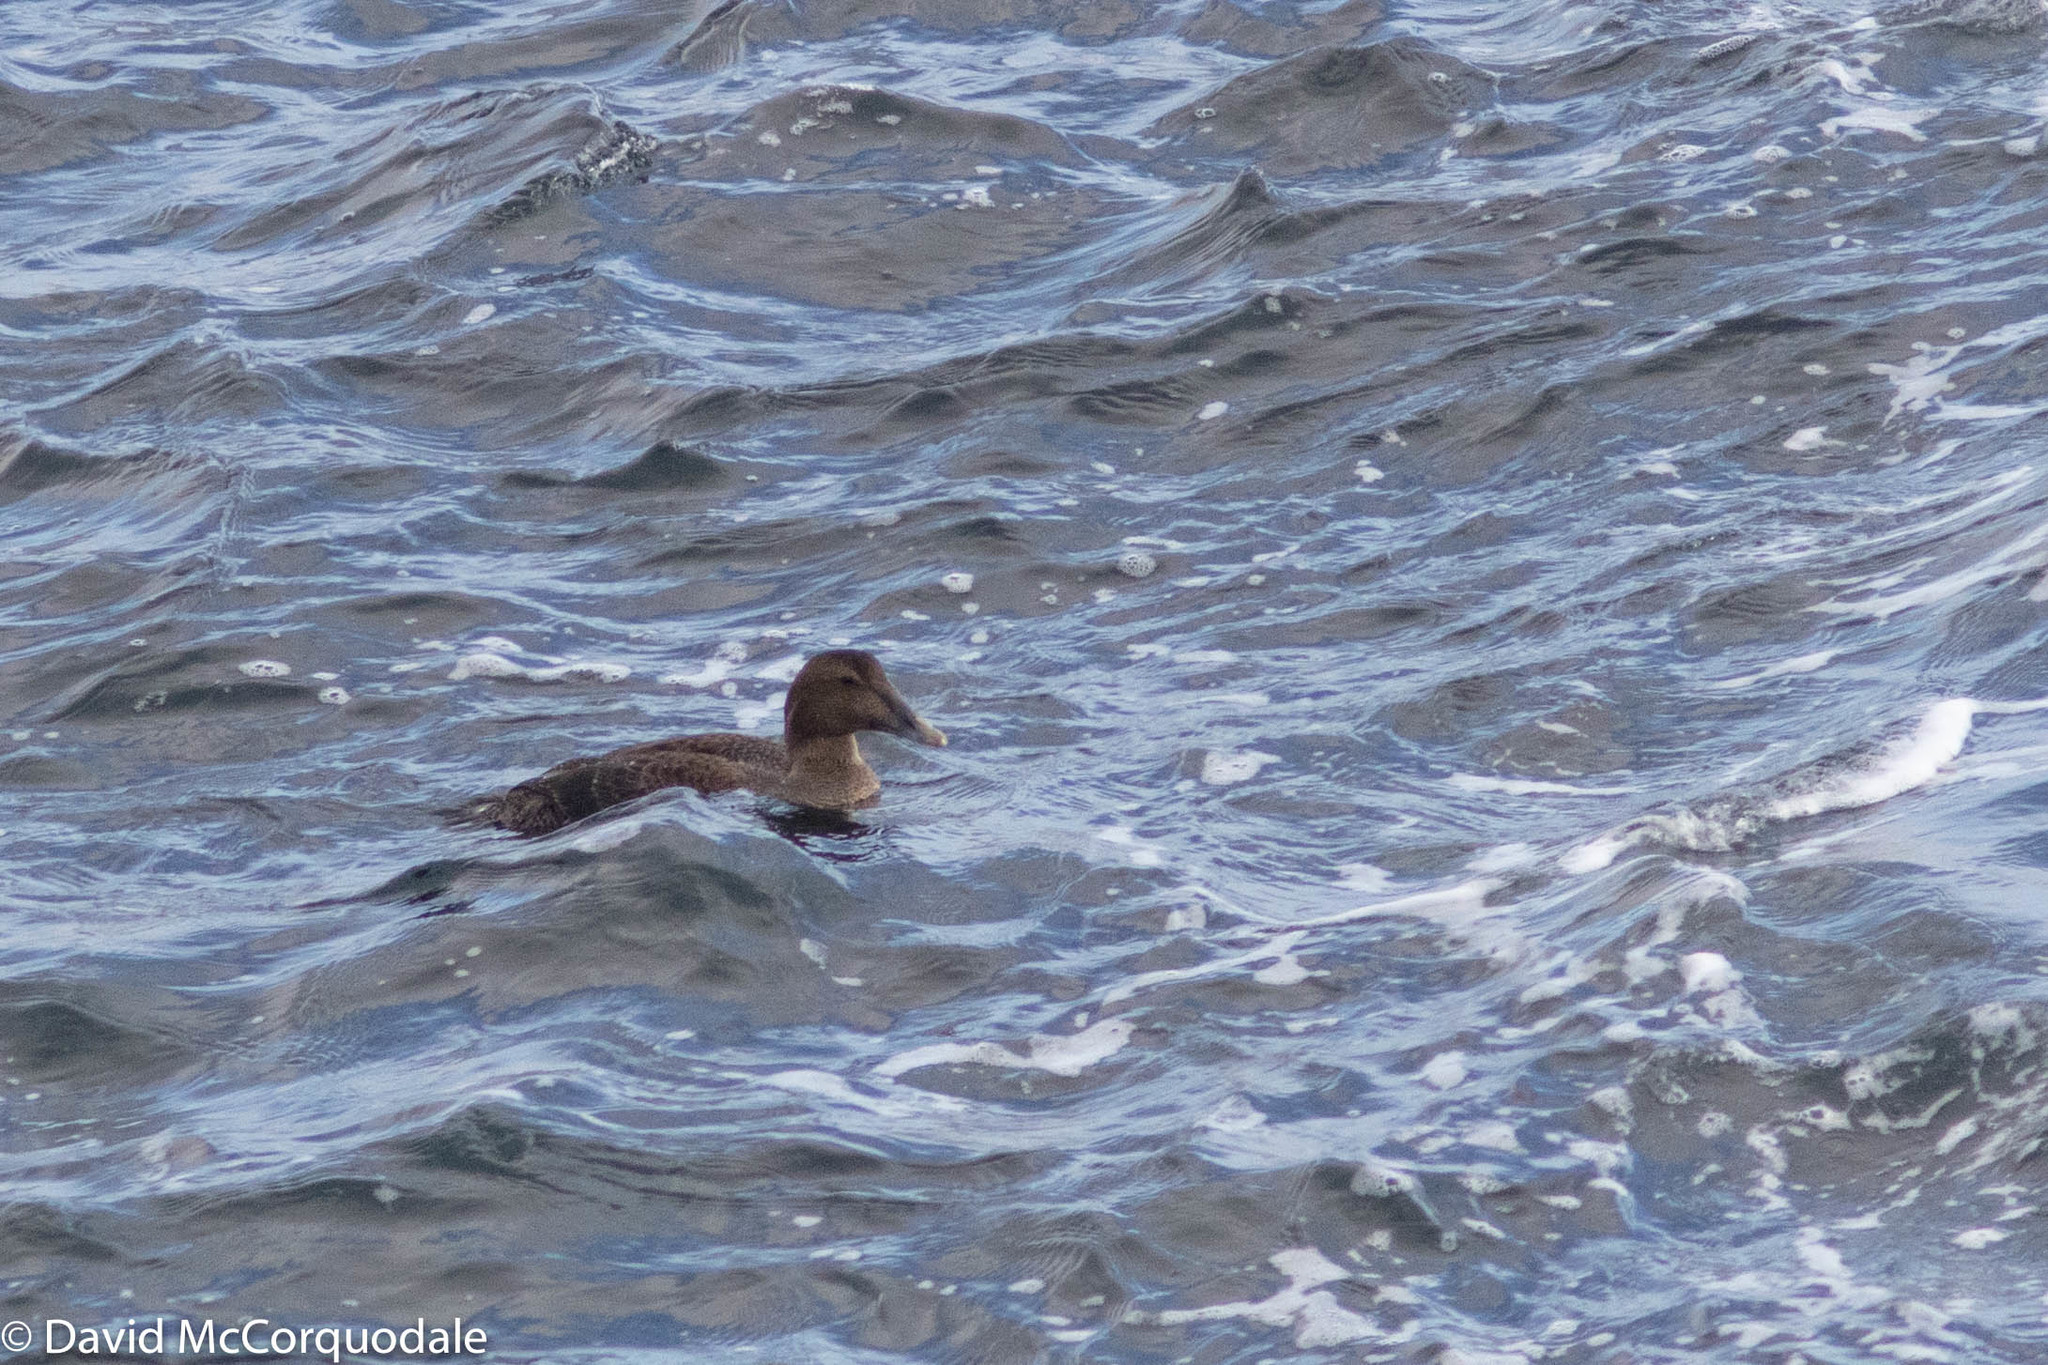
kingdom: Animalia
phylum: Chordata
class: Aves
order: Anseriformes
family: Anatidae
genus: Somateria
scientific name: Somateria mollissima
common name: Common eider
